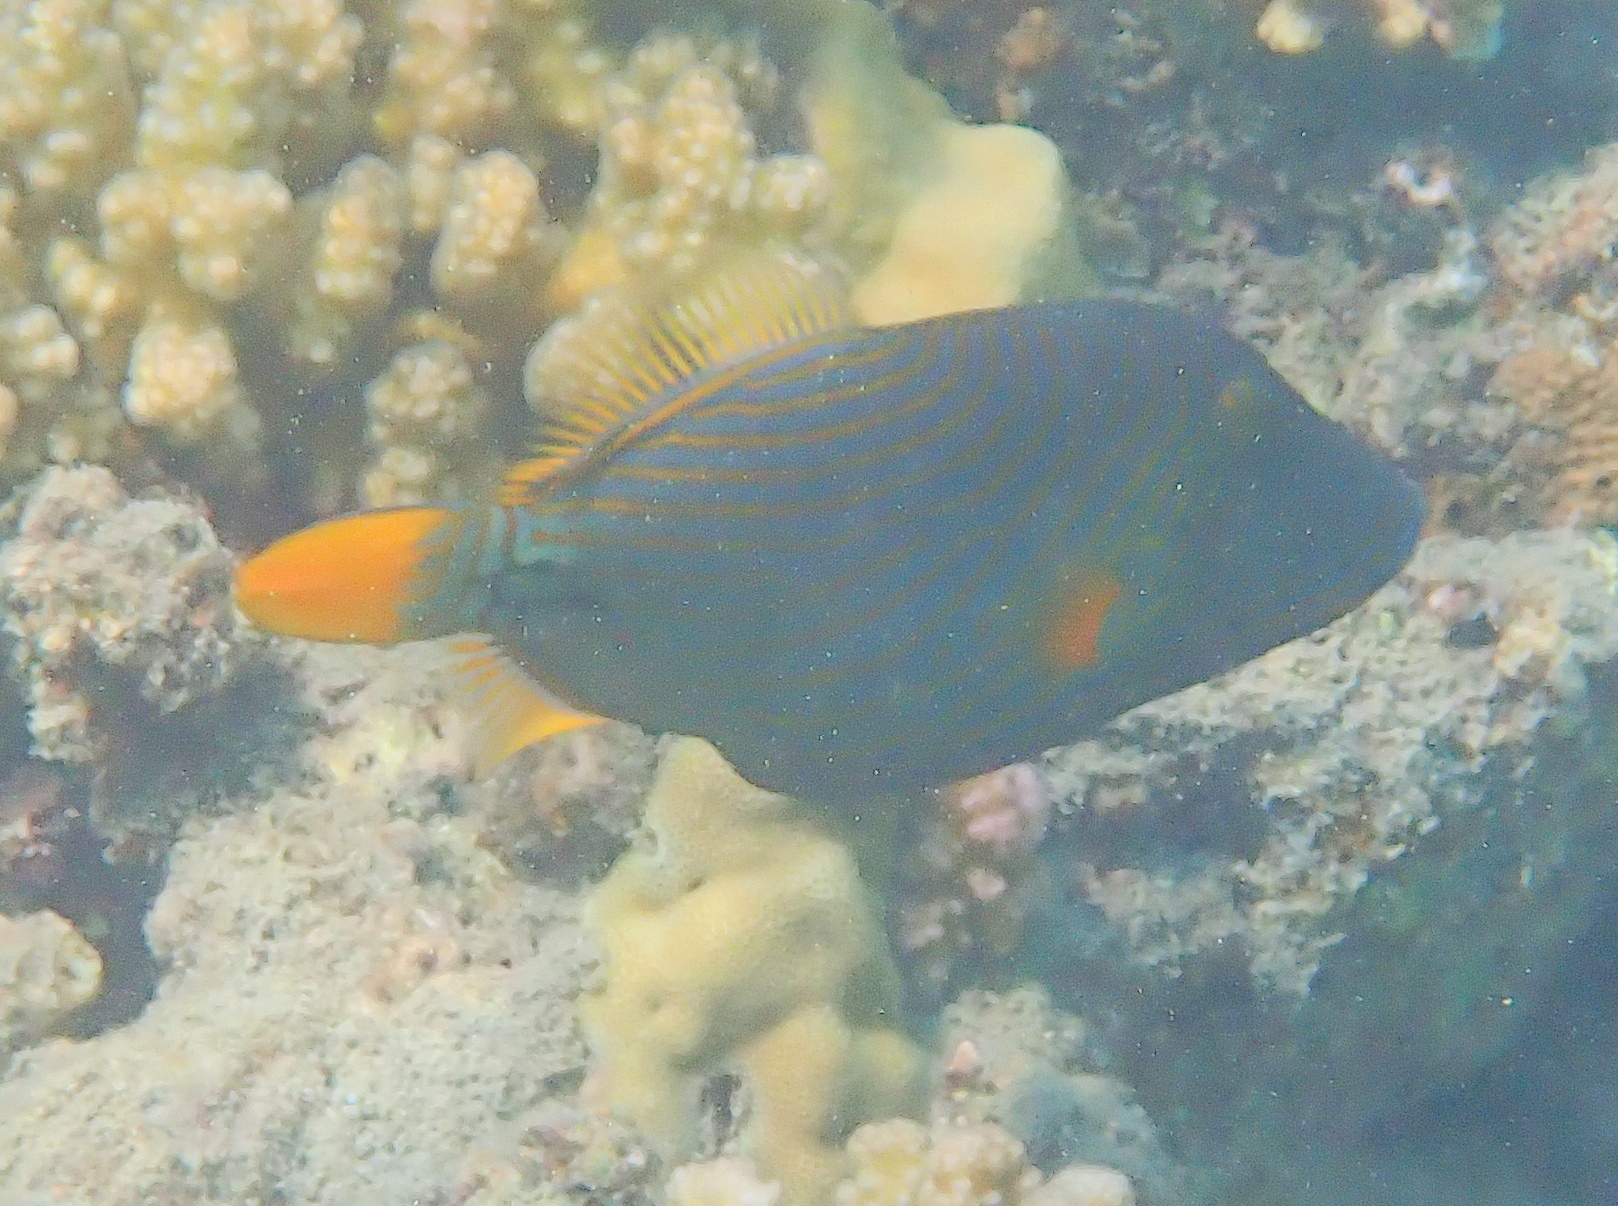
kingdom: Animalia
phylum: Chordata
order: Tetraodontiformes
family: Balistidae
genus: Balistapus
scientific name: Balistapus undulatus
